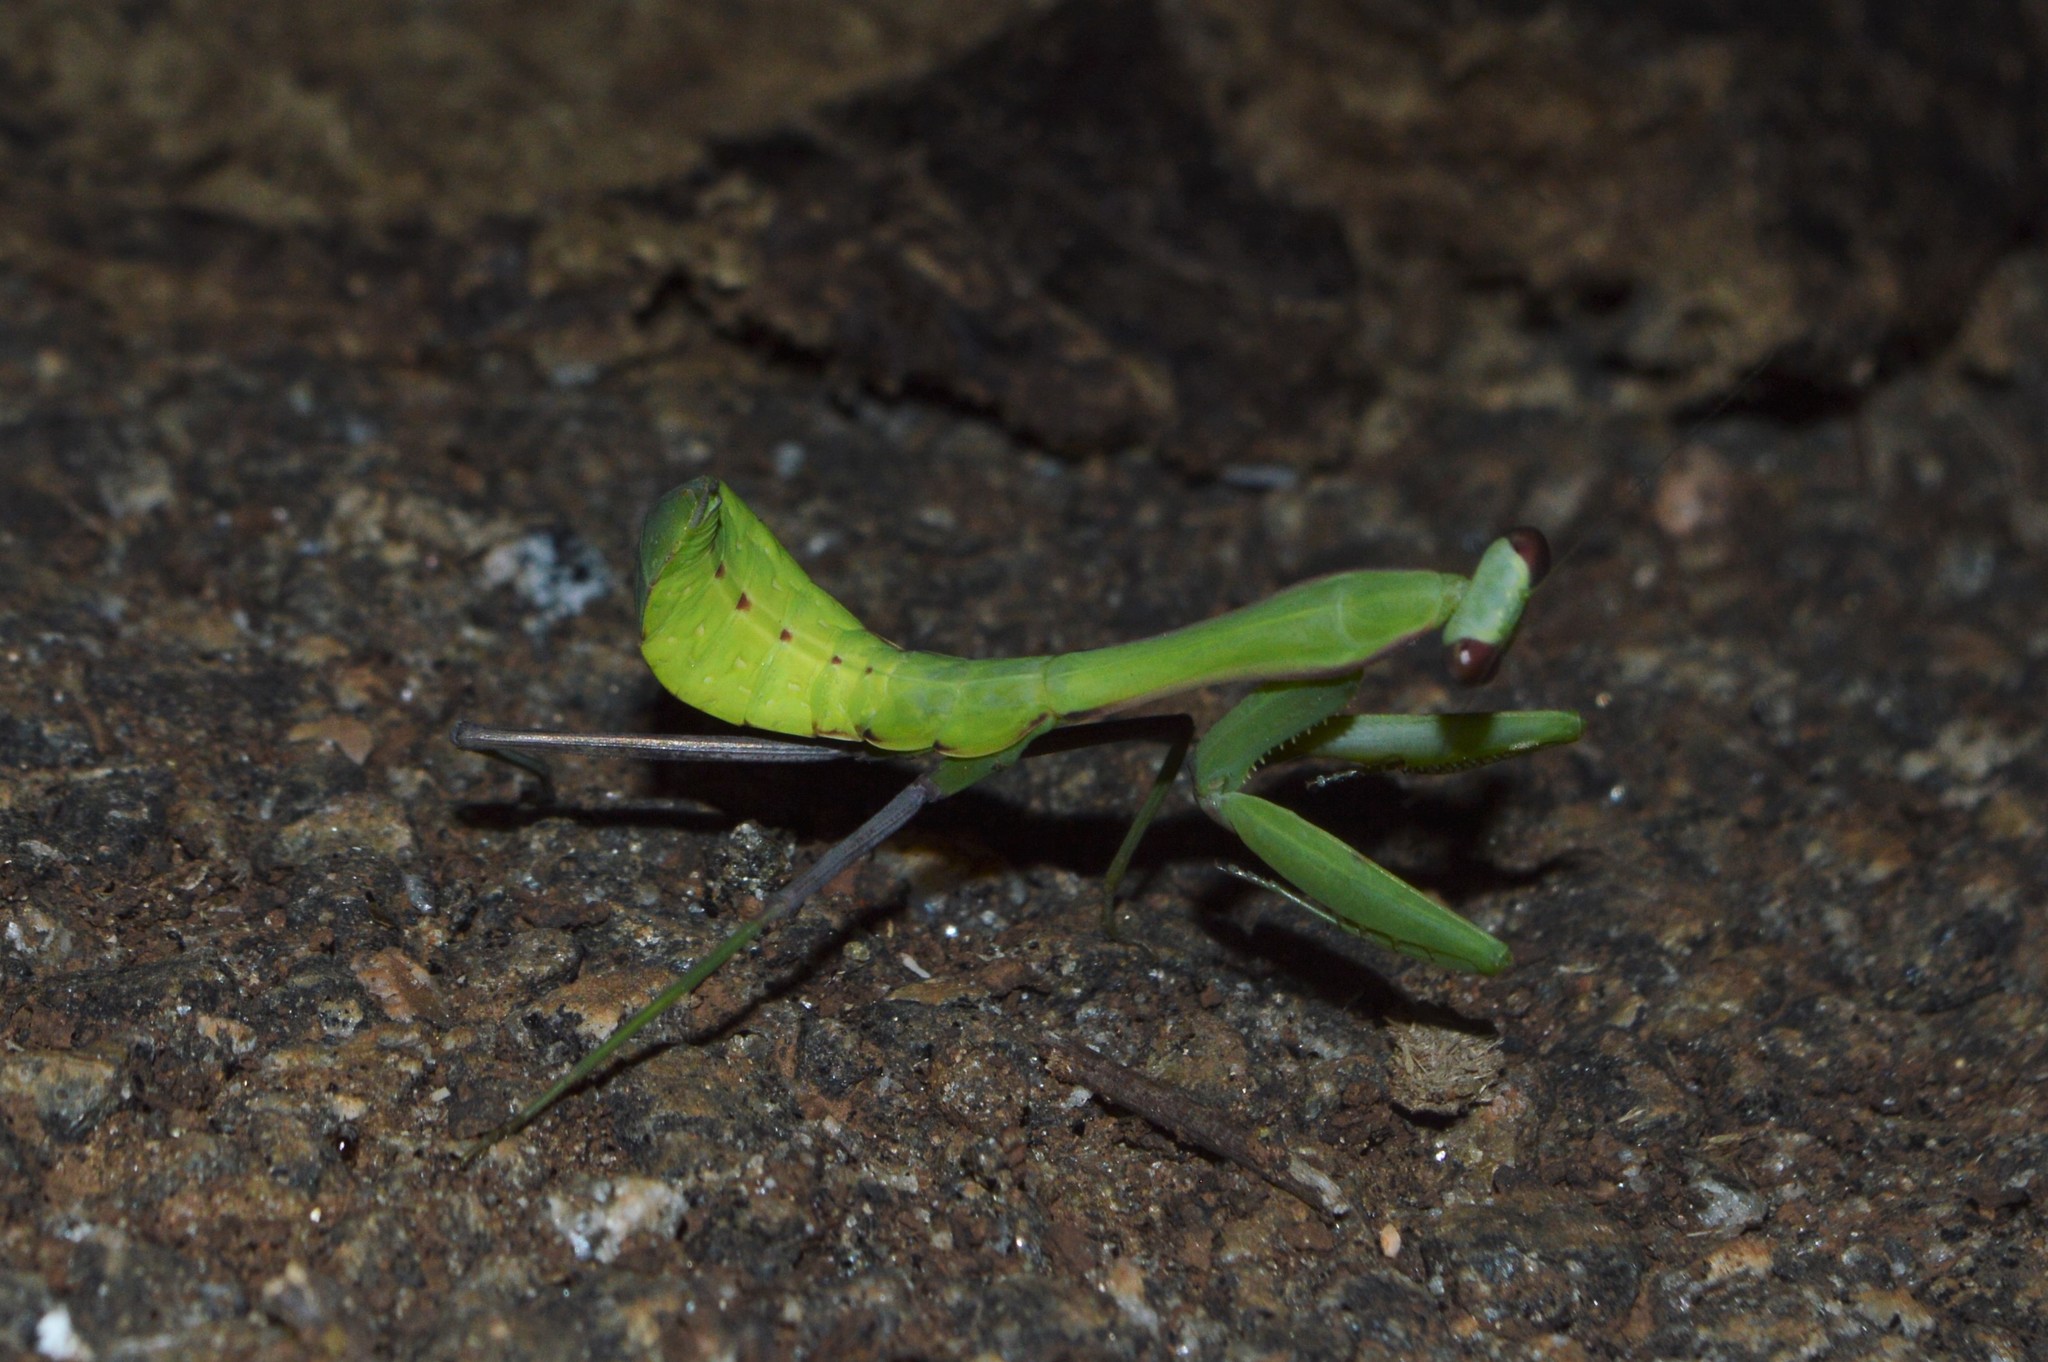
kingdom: Animalia
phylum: Arthropoda
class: Insecta
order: Mantodea
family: Mantidae
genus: Hierodula
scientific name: Hierodula membranacea
